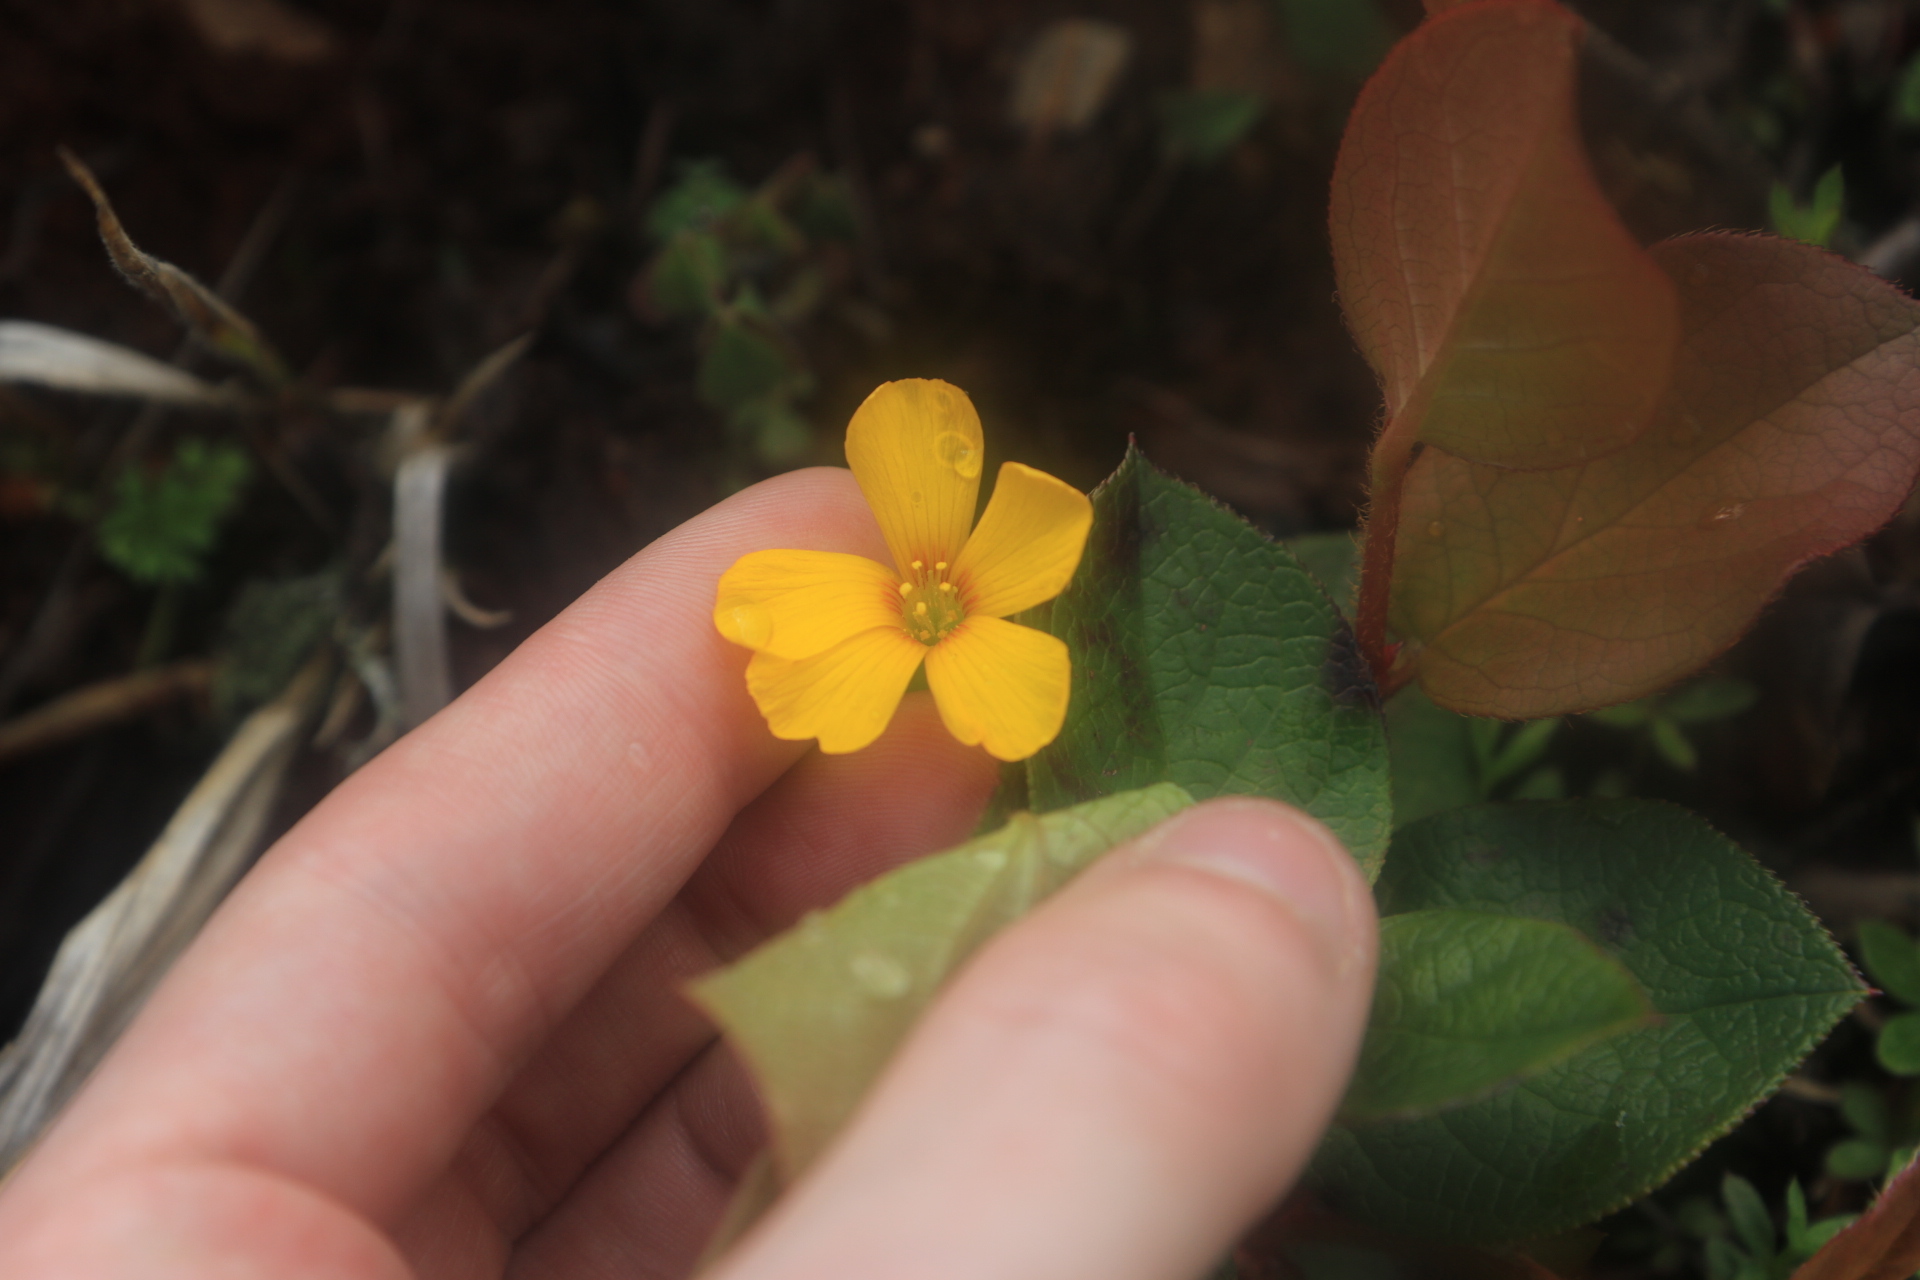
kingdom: Plantae
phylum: Tracheophyta
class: Magnoliopsida
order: Oxalidales
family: Oxalidaceae
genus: Oxalis
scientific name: Oxalis suksdorfii
